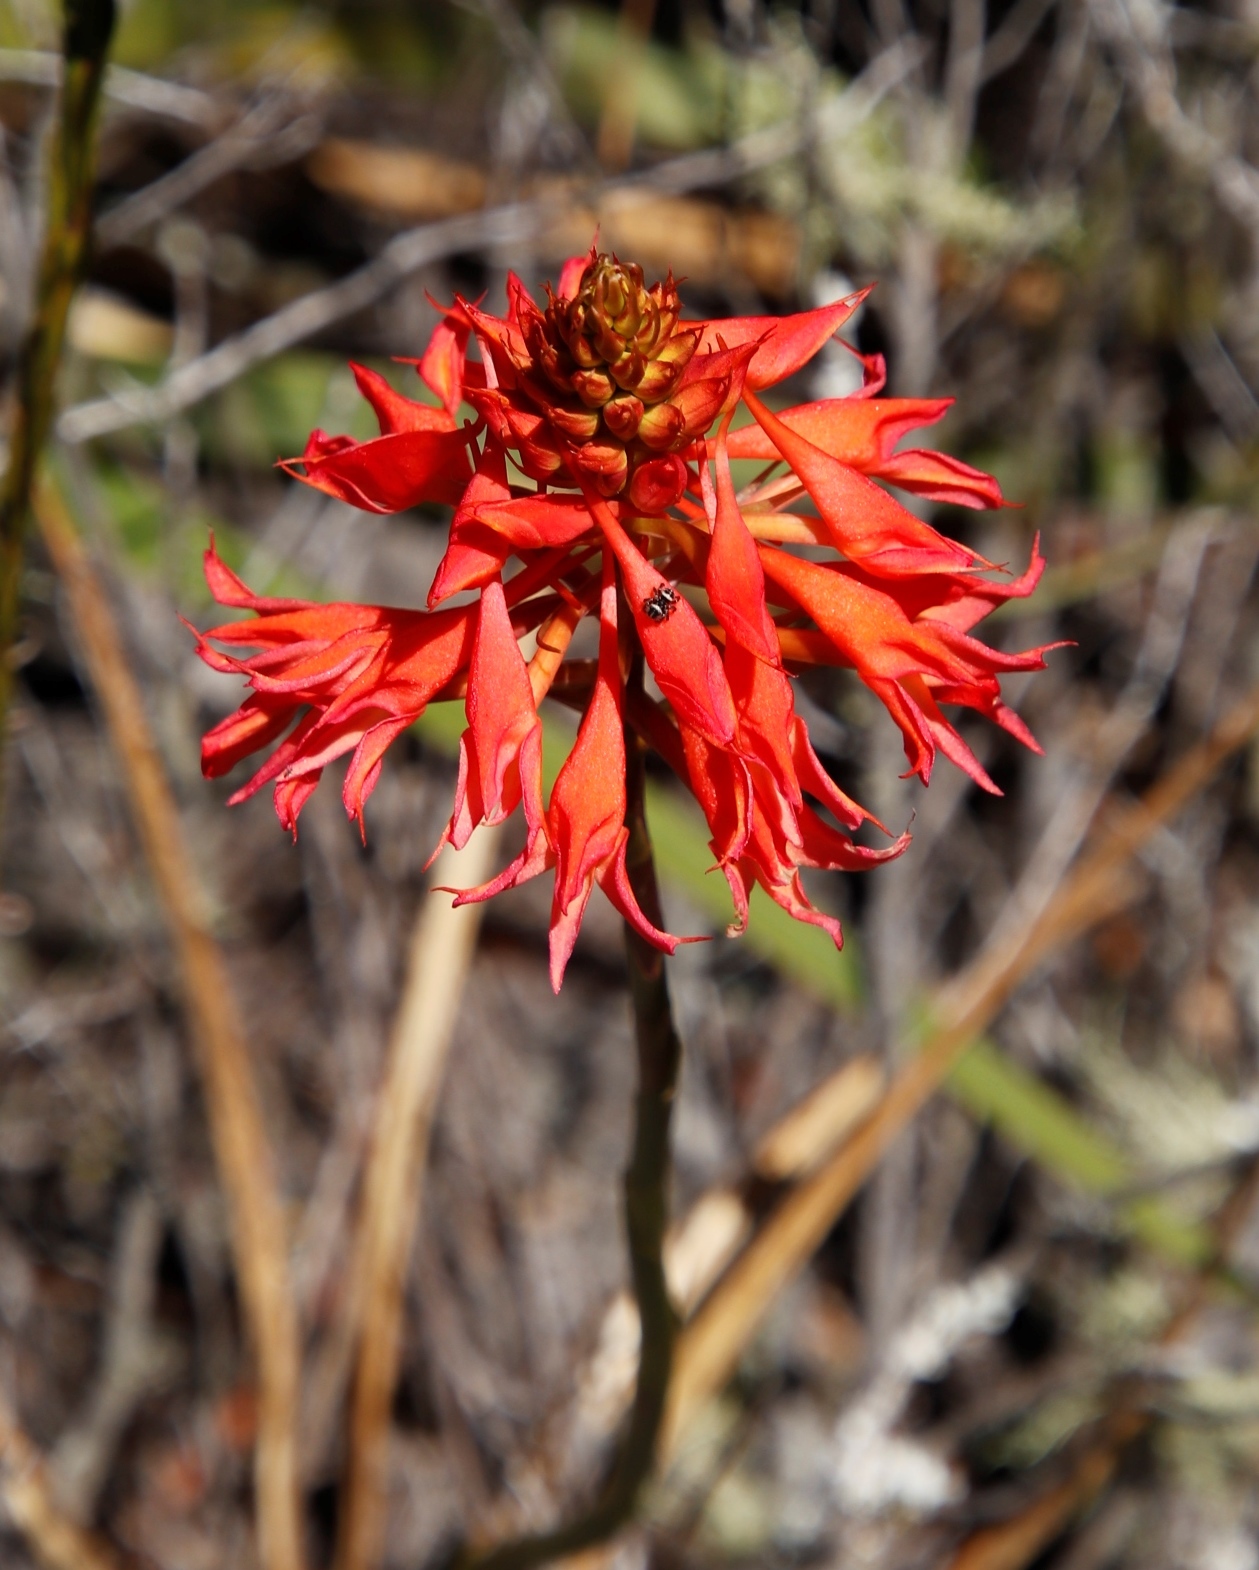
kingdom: Plantae
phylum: Tracheophyta
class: Liliopsida
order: Asparagales
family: Orchidaceae
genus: Disa
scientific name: Disa ferruginea
